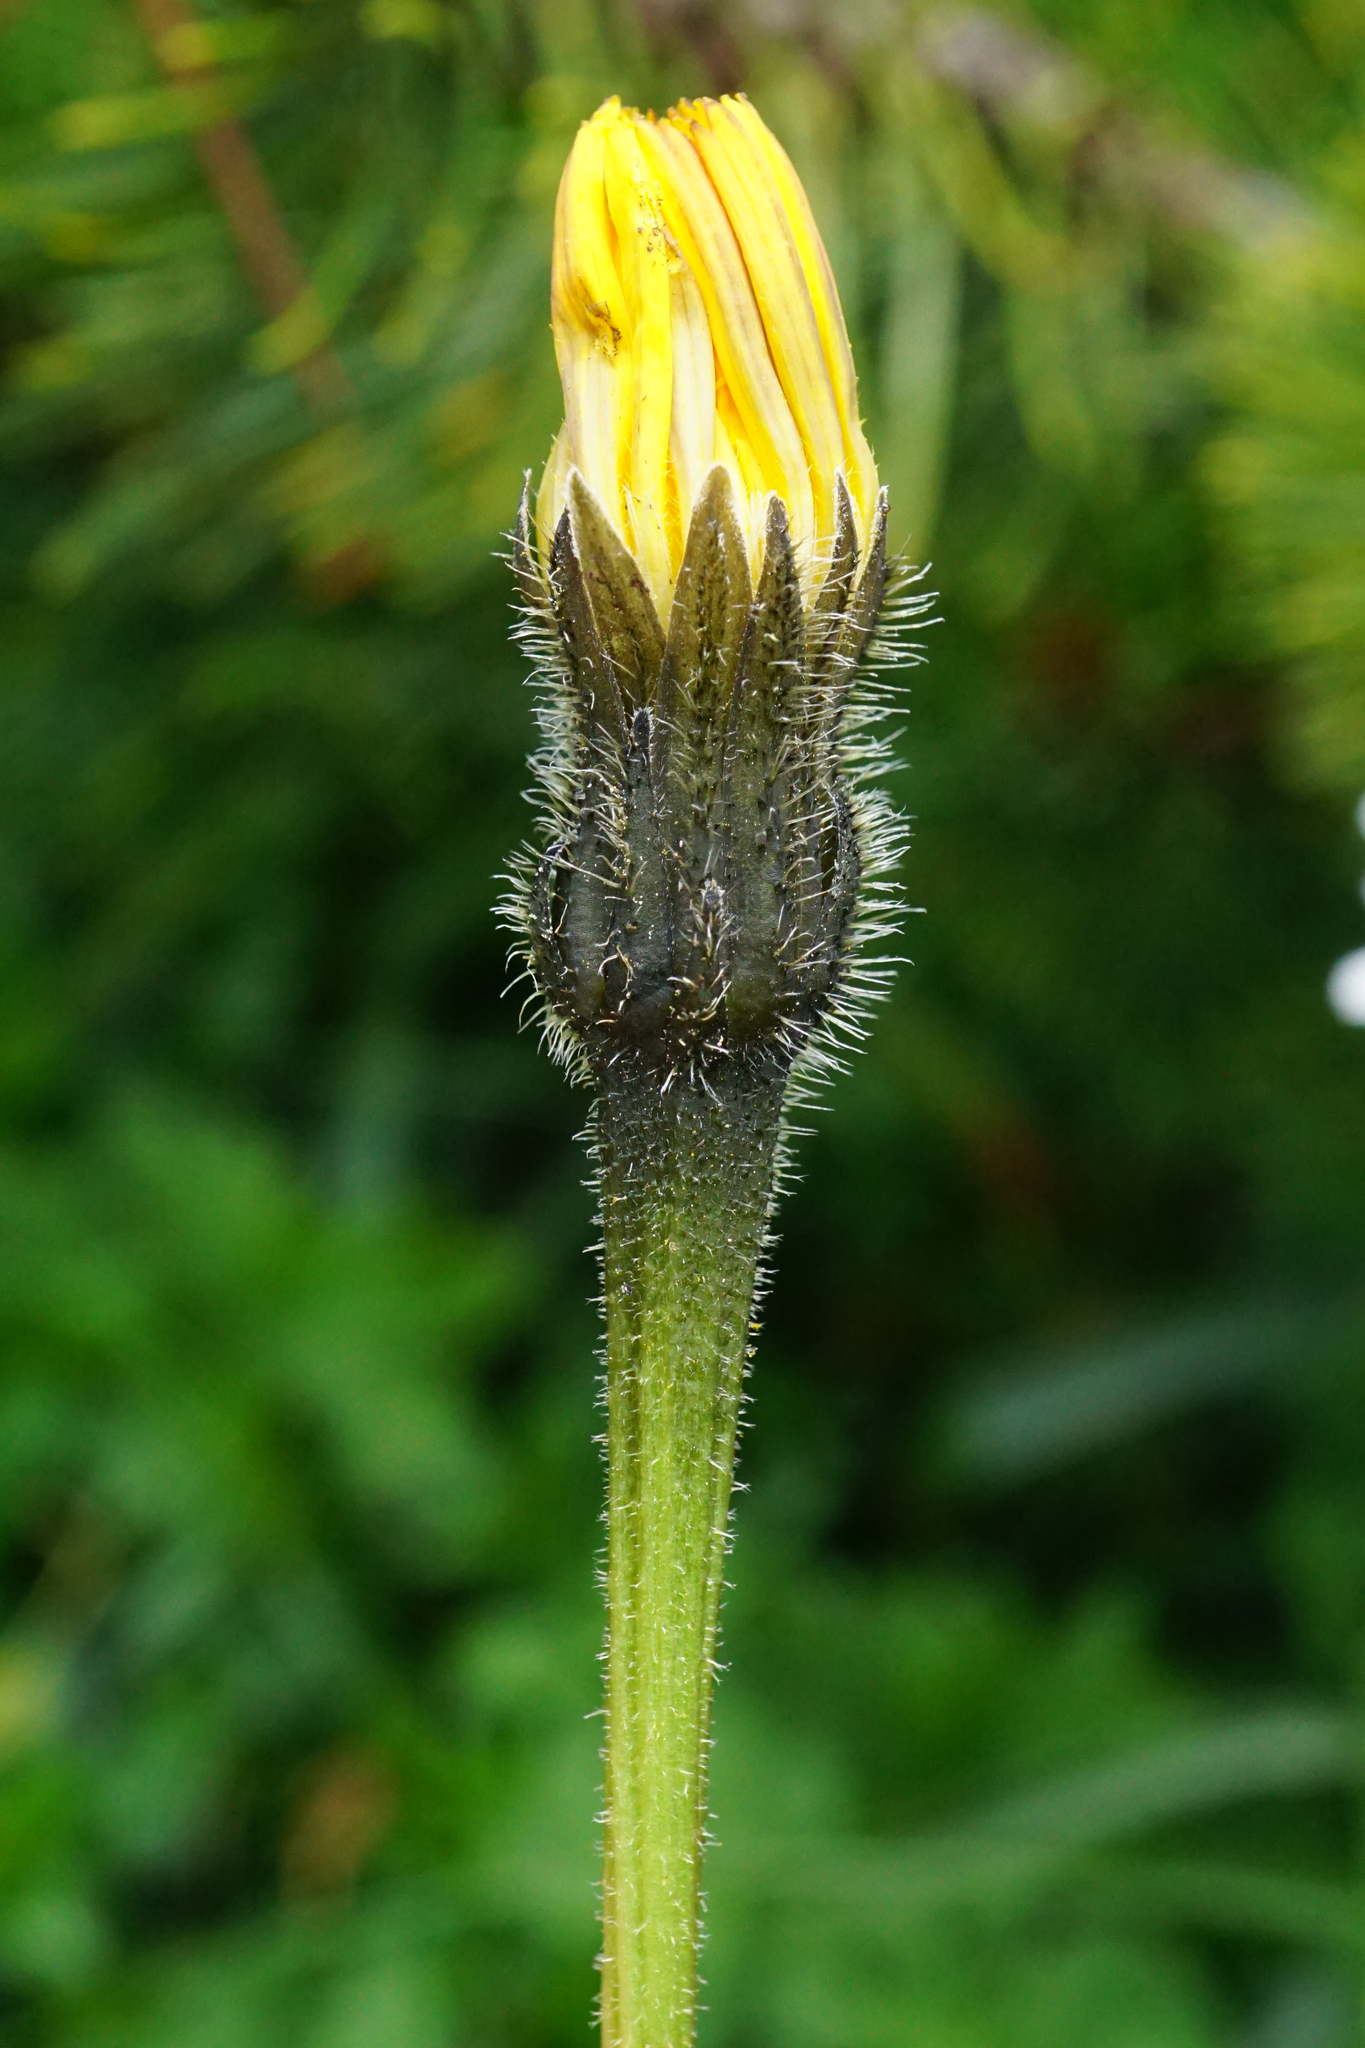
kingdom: Plantae
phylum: Tracheophyta
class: Magnoliopsida
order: Asterales
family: Asteraceae
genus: Leontodon
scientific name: Leontodon hispidus
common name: Rough hawkbit
